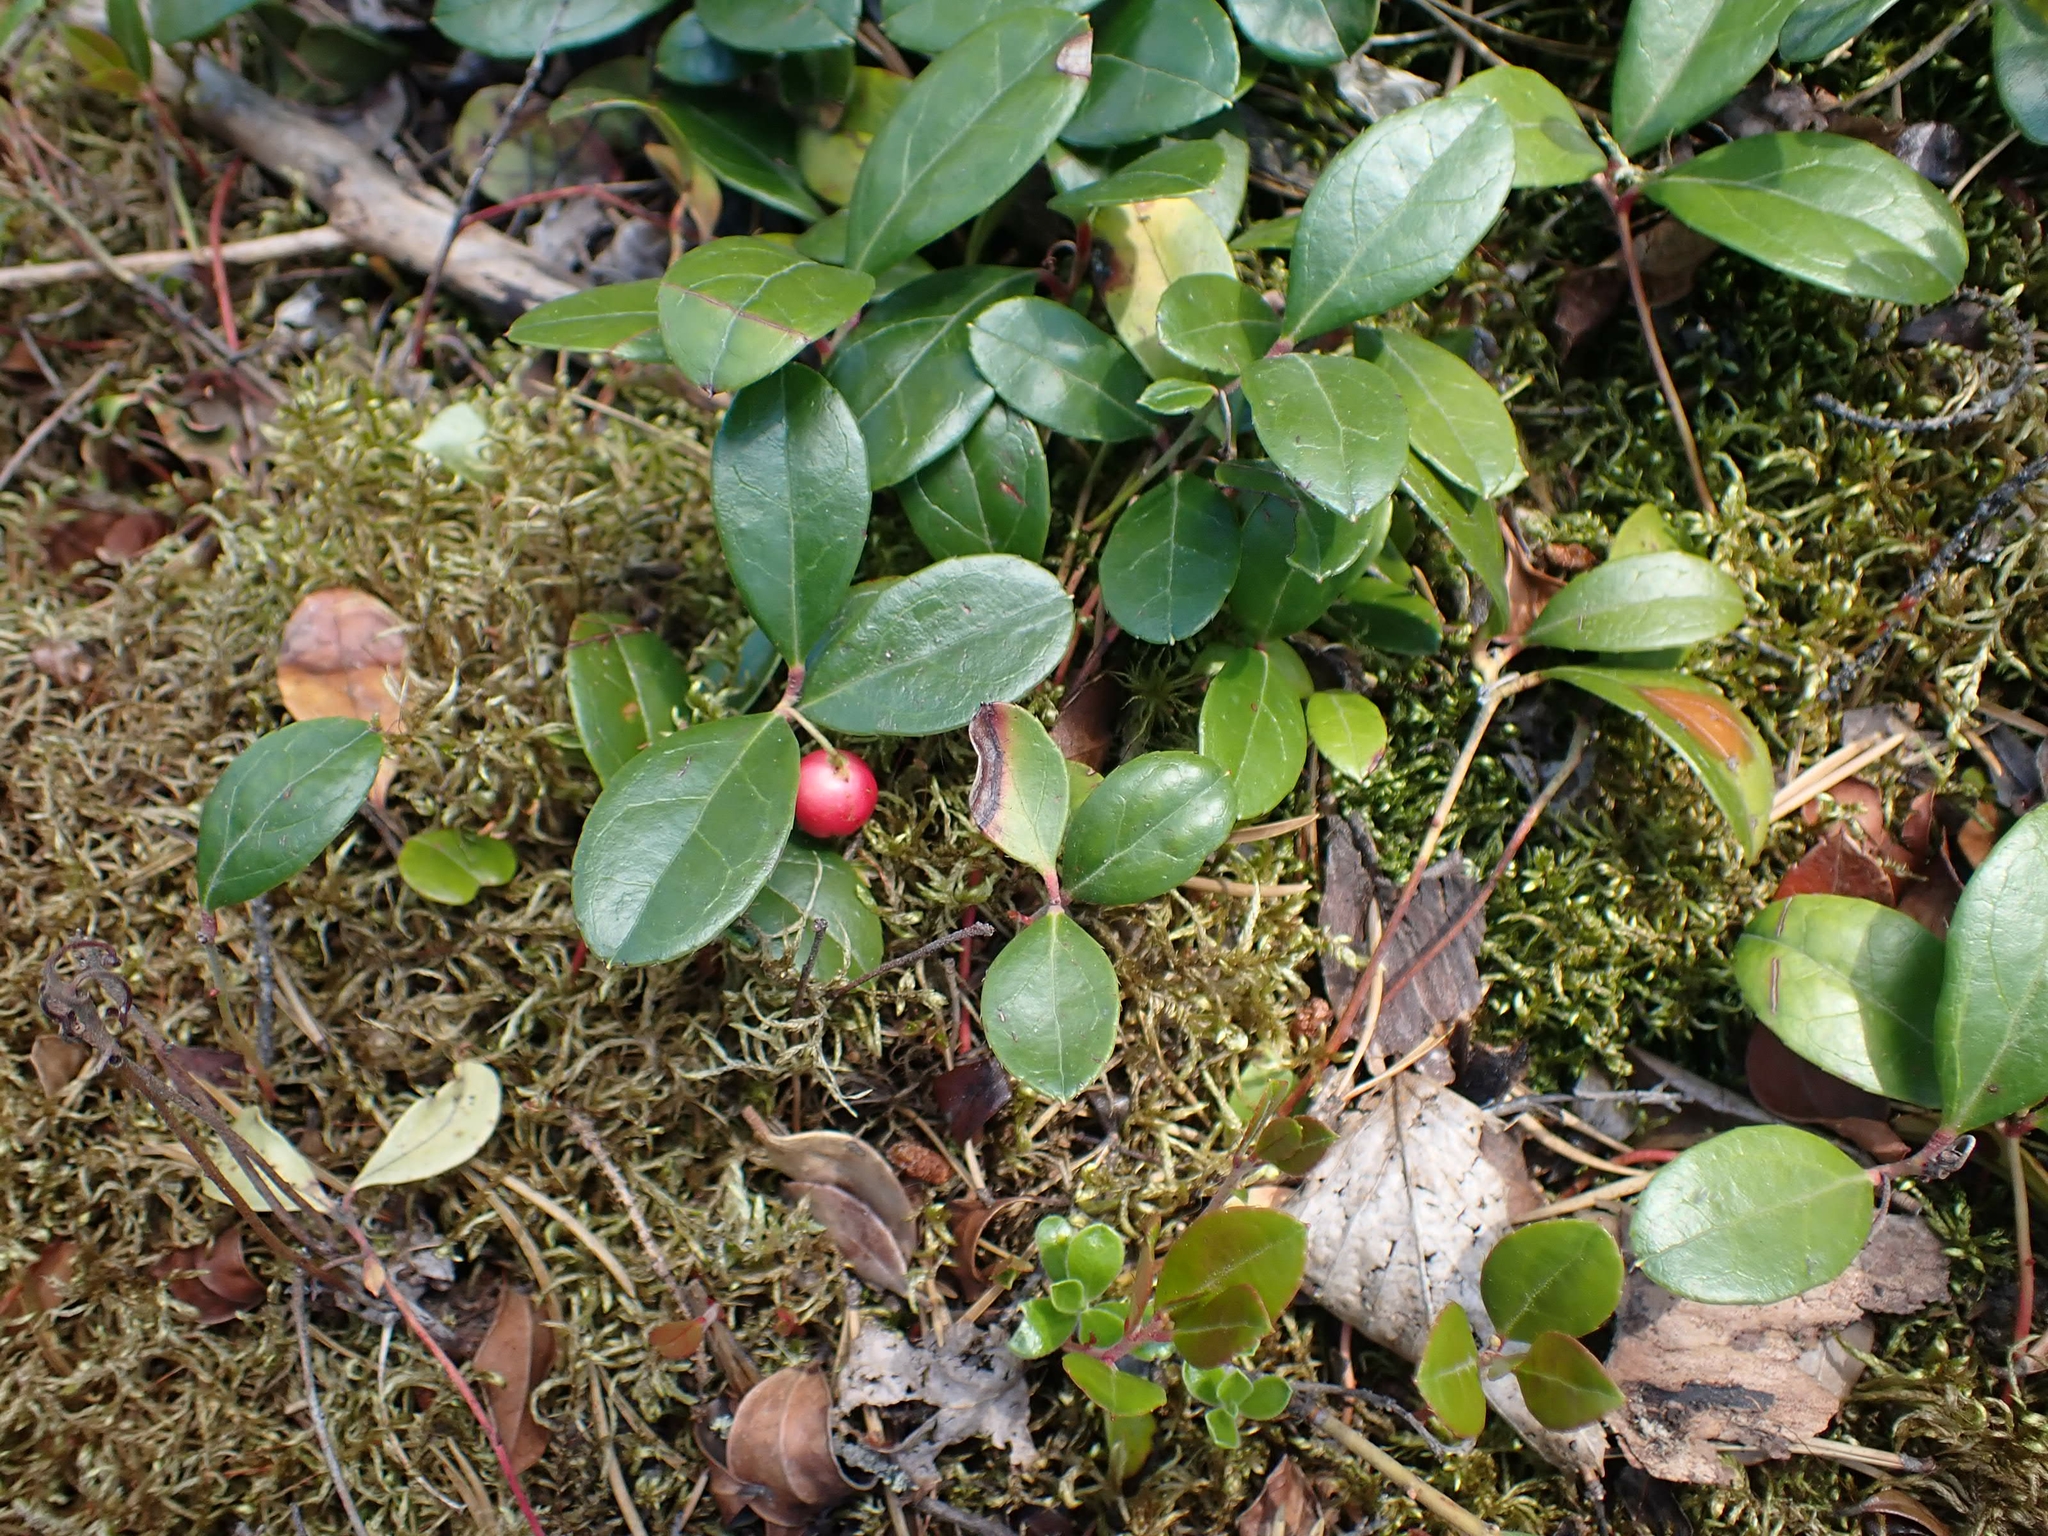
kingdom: Plantae
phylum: Tracheophyta
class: Magnoliopsida
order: Ericales
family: Ericaceae
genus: Gaultheria
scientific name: Gaultheria procumbens
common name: Checkerberry
